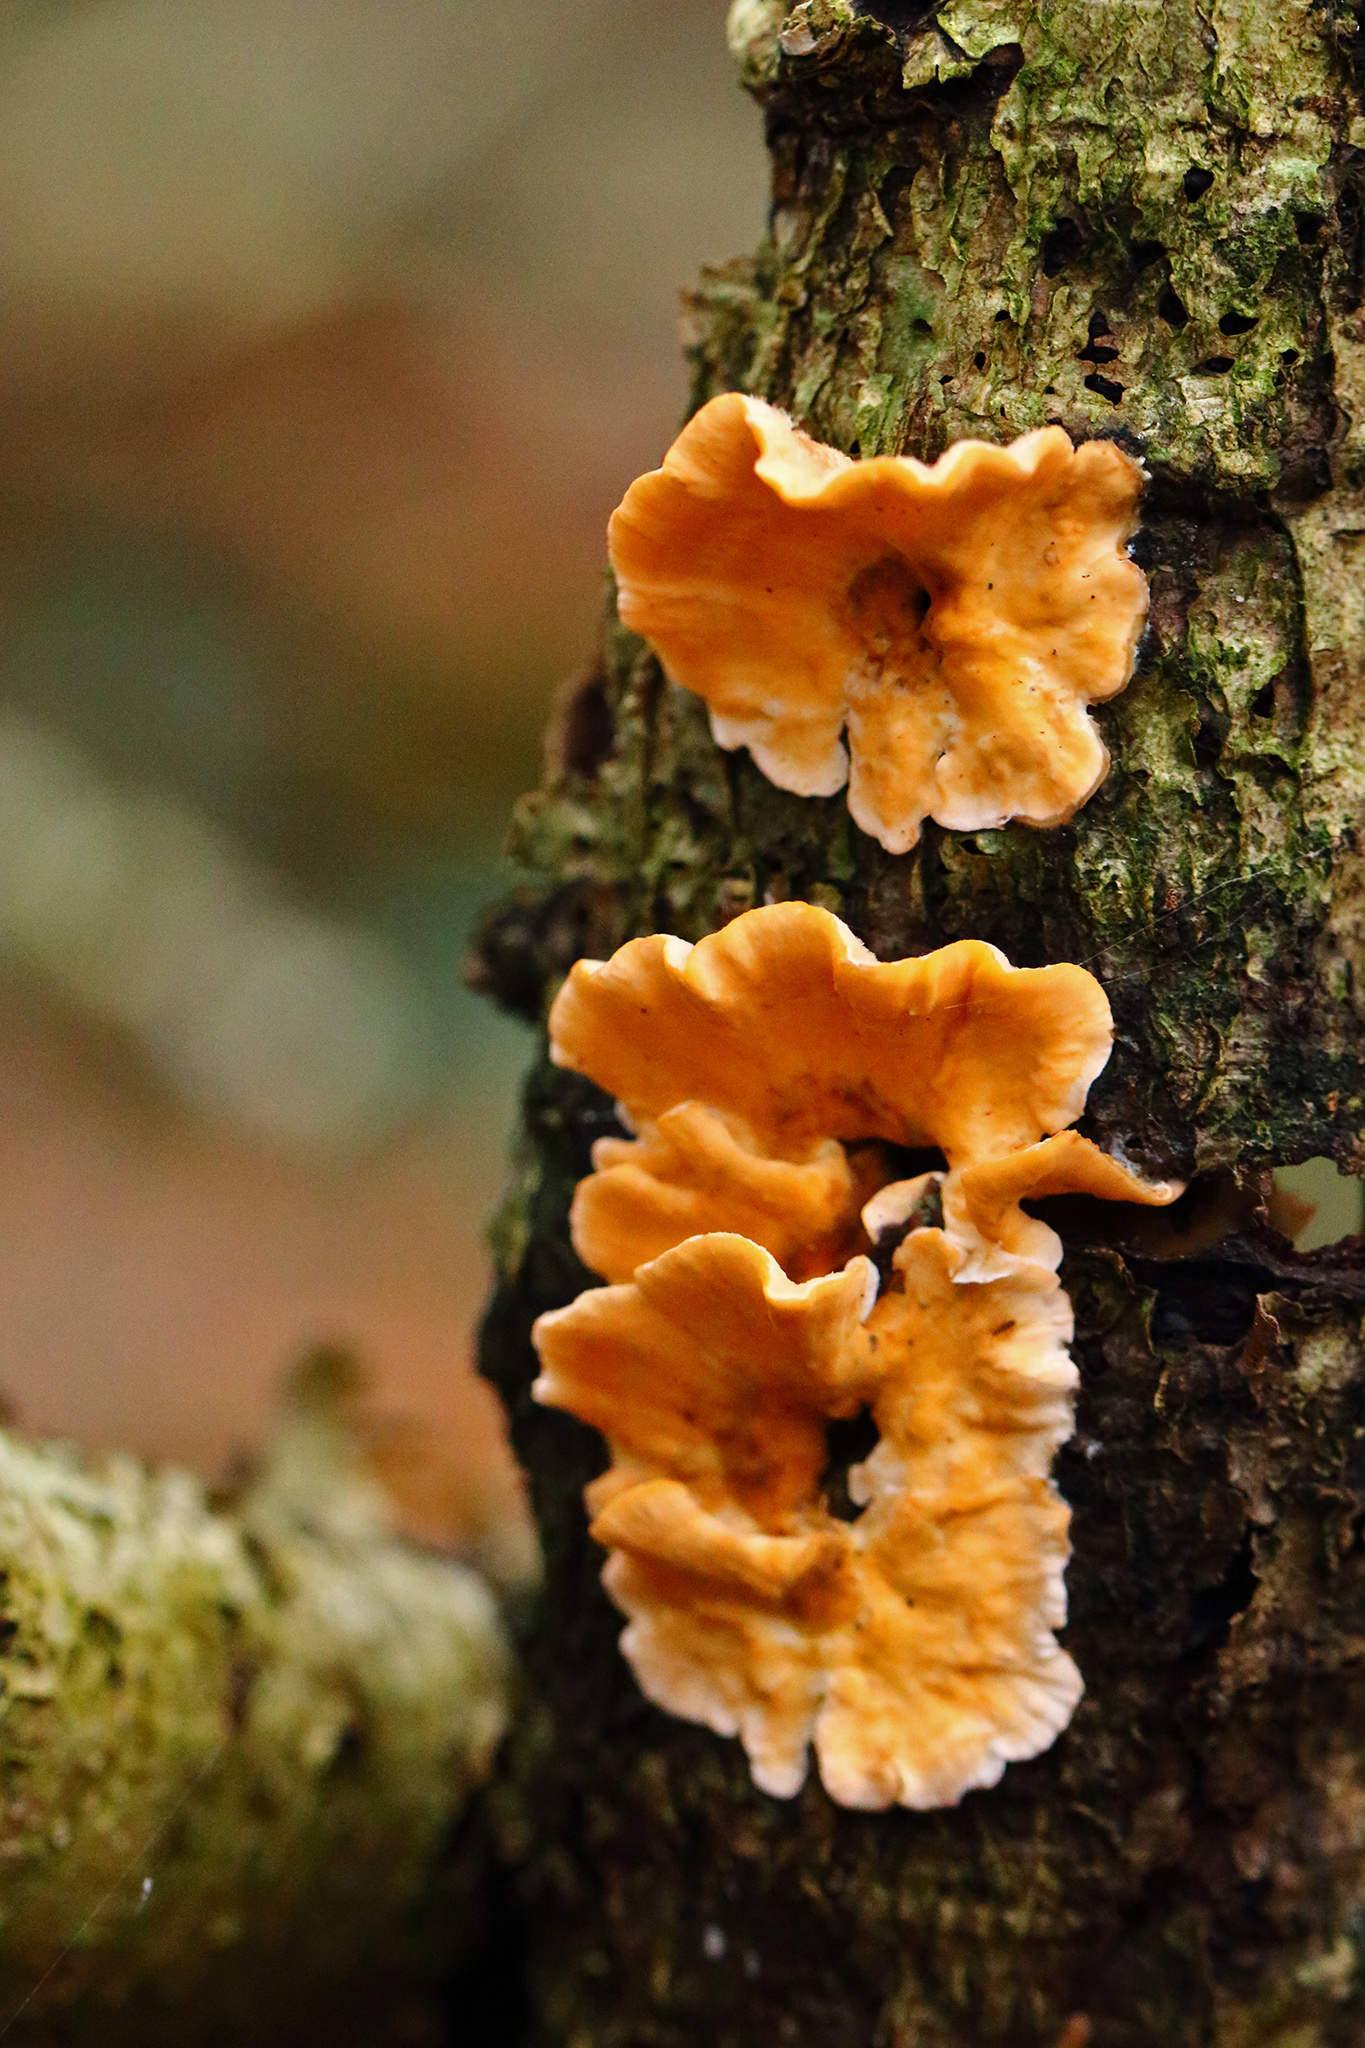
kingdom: Fungi
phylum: Basidiomycota
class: Agaricomycetes
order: Russulales
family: Stereaceae
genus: Stereum
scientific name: Stereum hirsutum
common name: Hairy curtain crust
